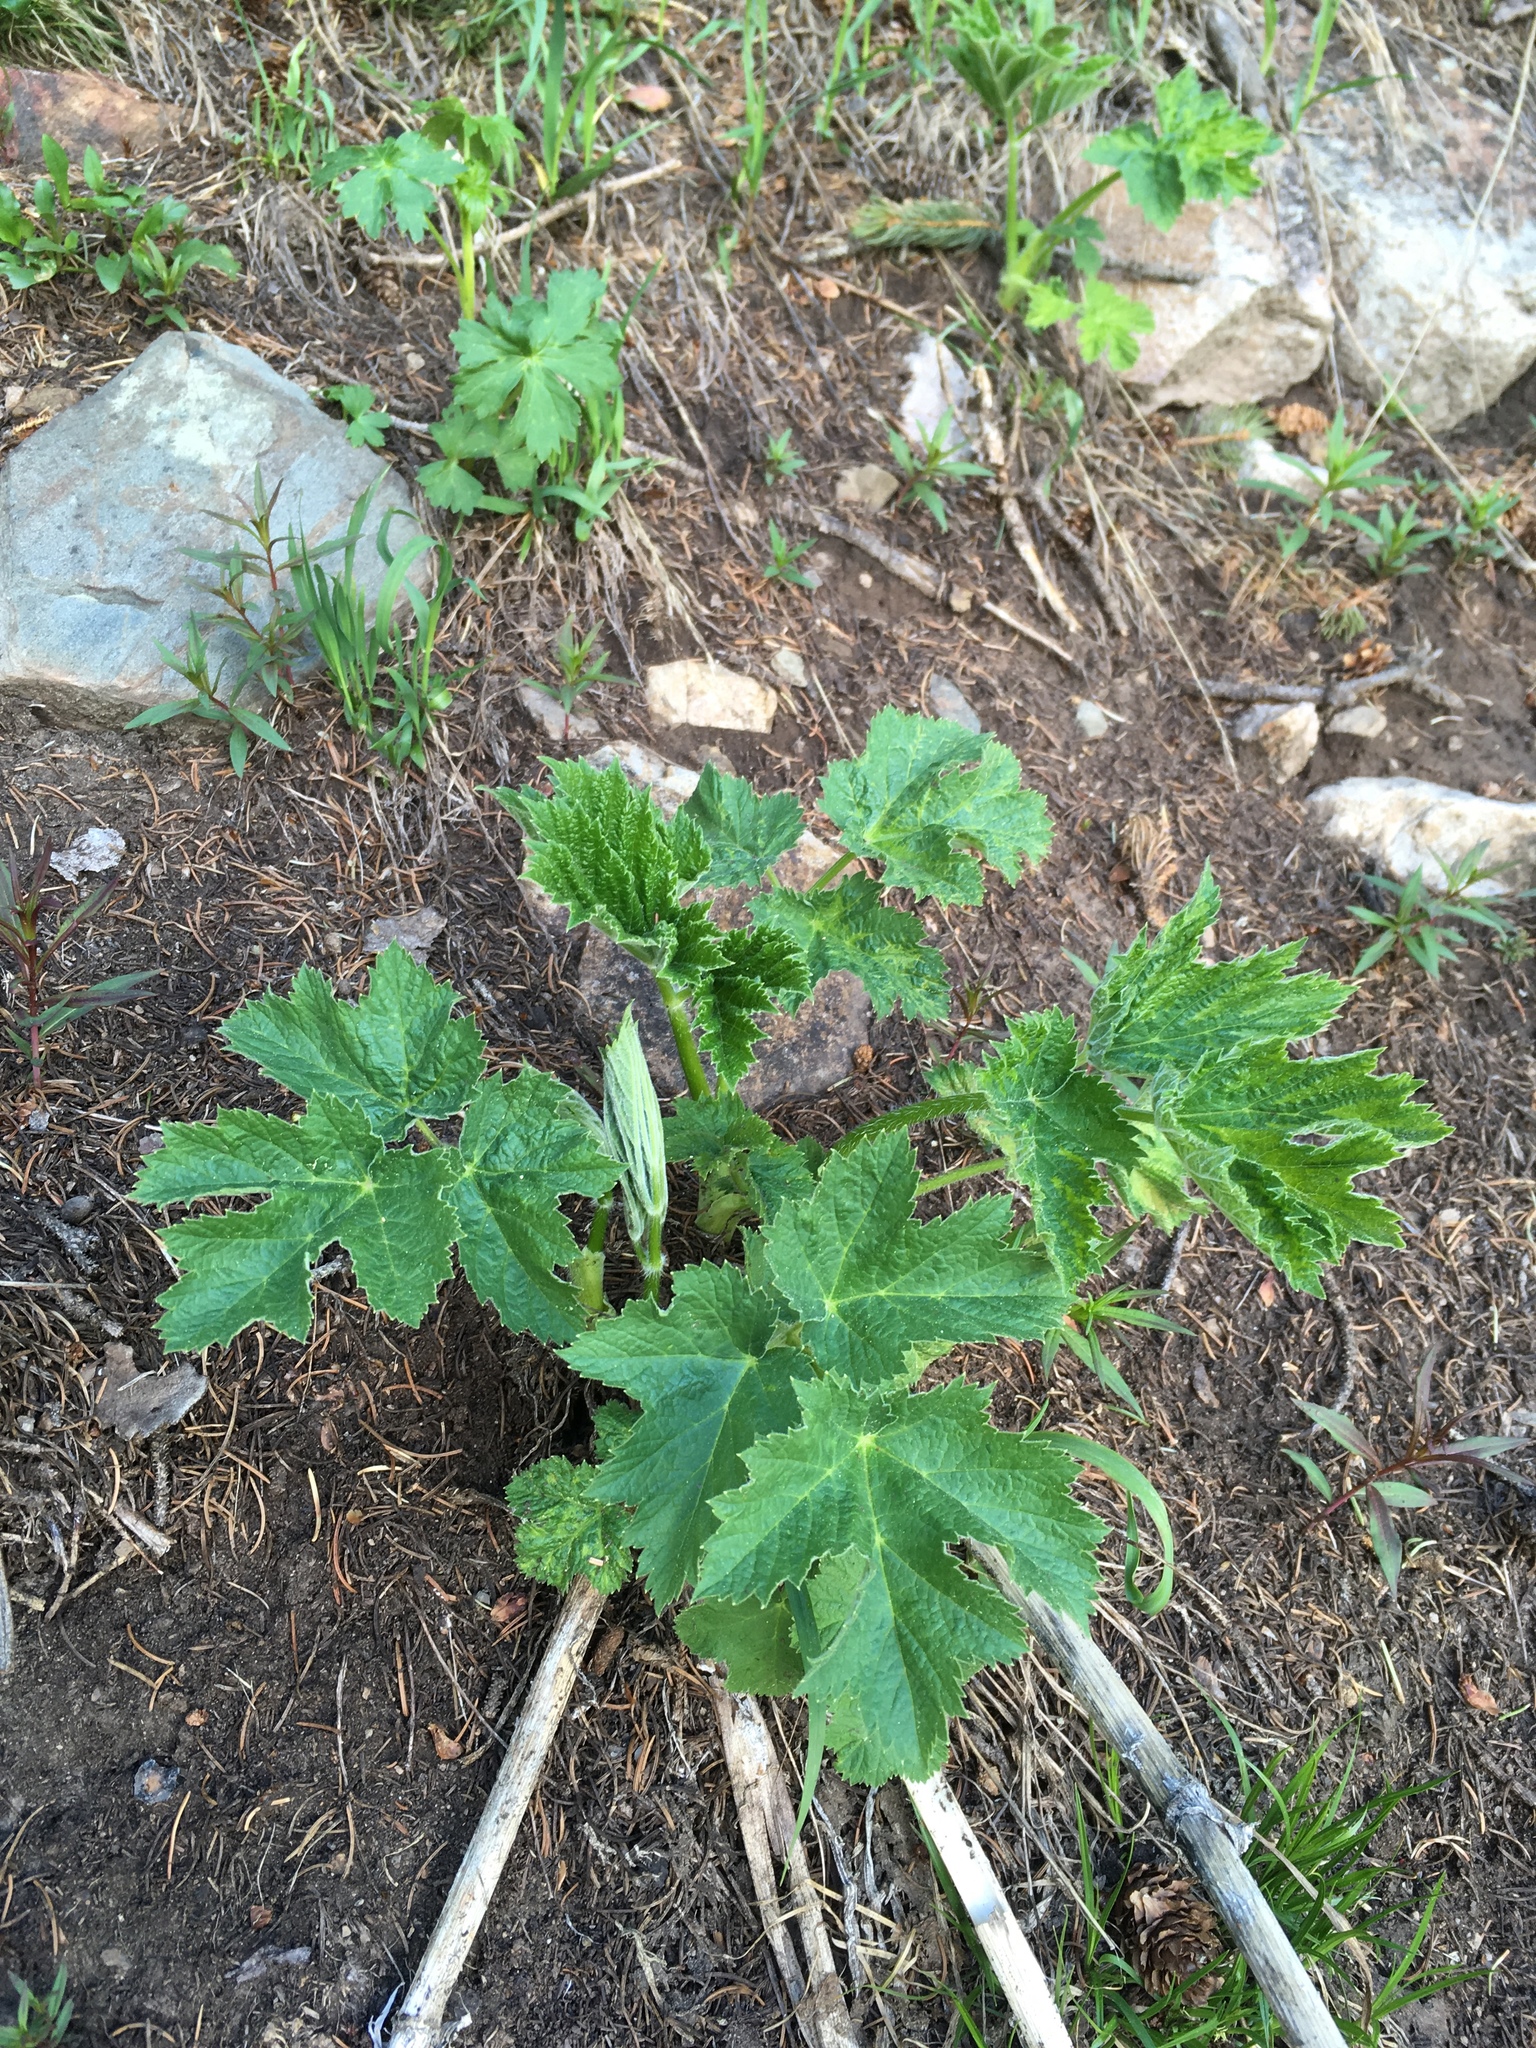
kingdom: Plantae
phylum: Tracheophyta
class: Magnoliopsida
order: Apiales
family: Apiaceae
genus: Heracleum
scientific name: Heracleum maximum
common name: American cow parsnip
